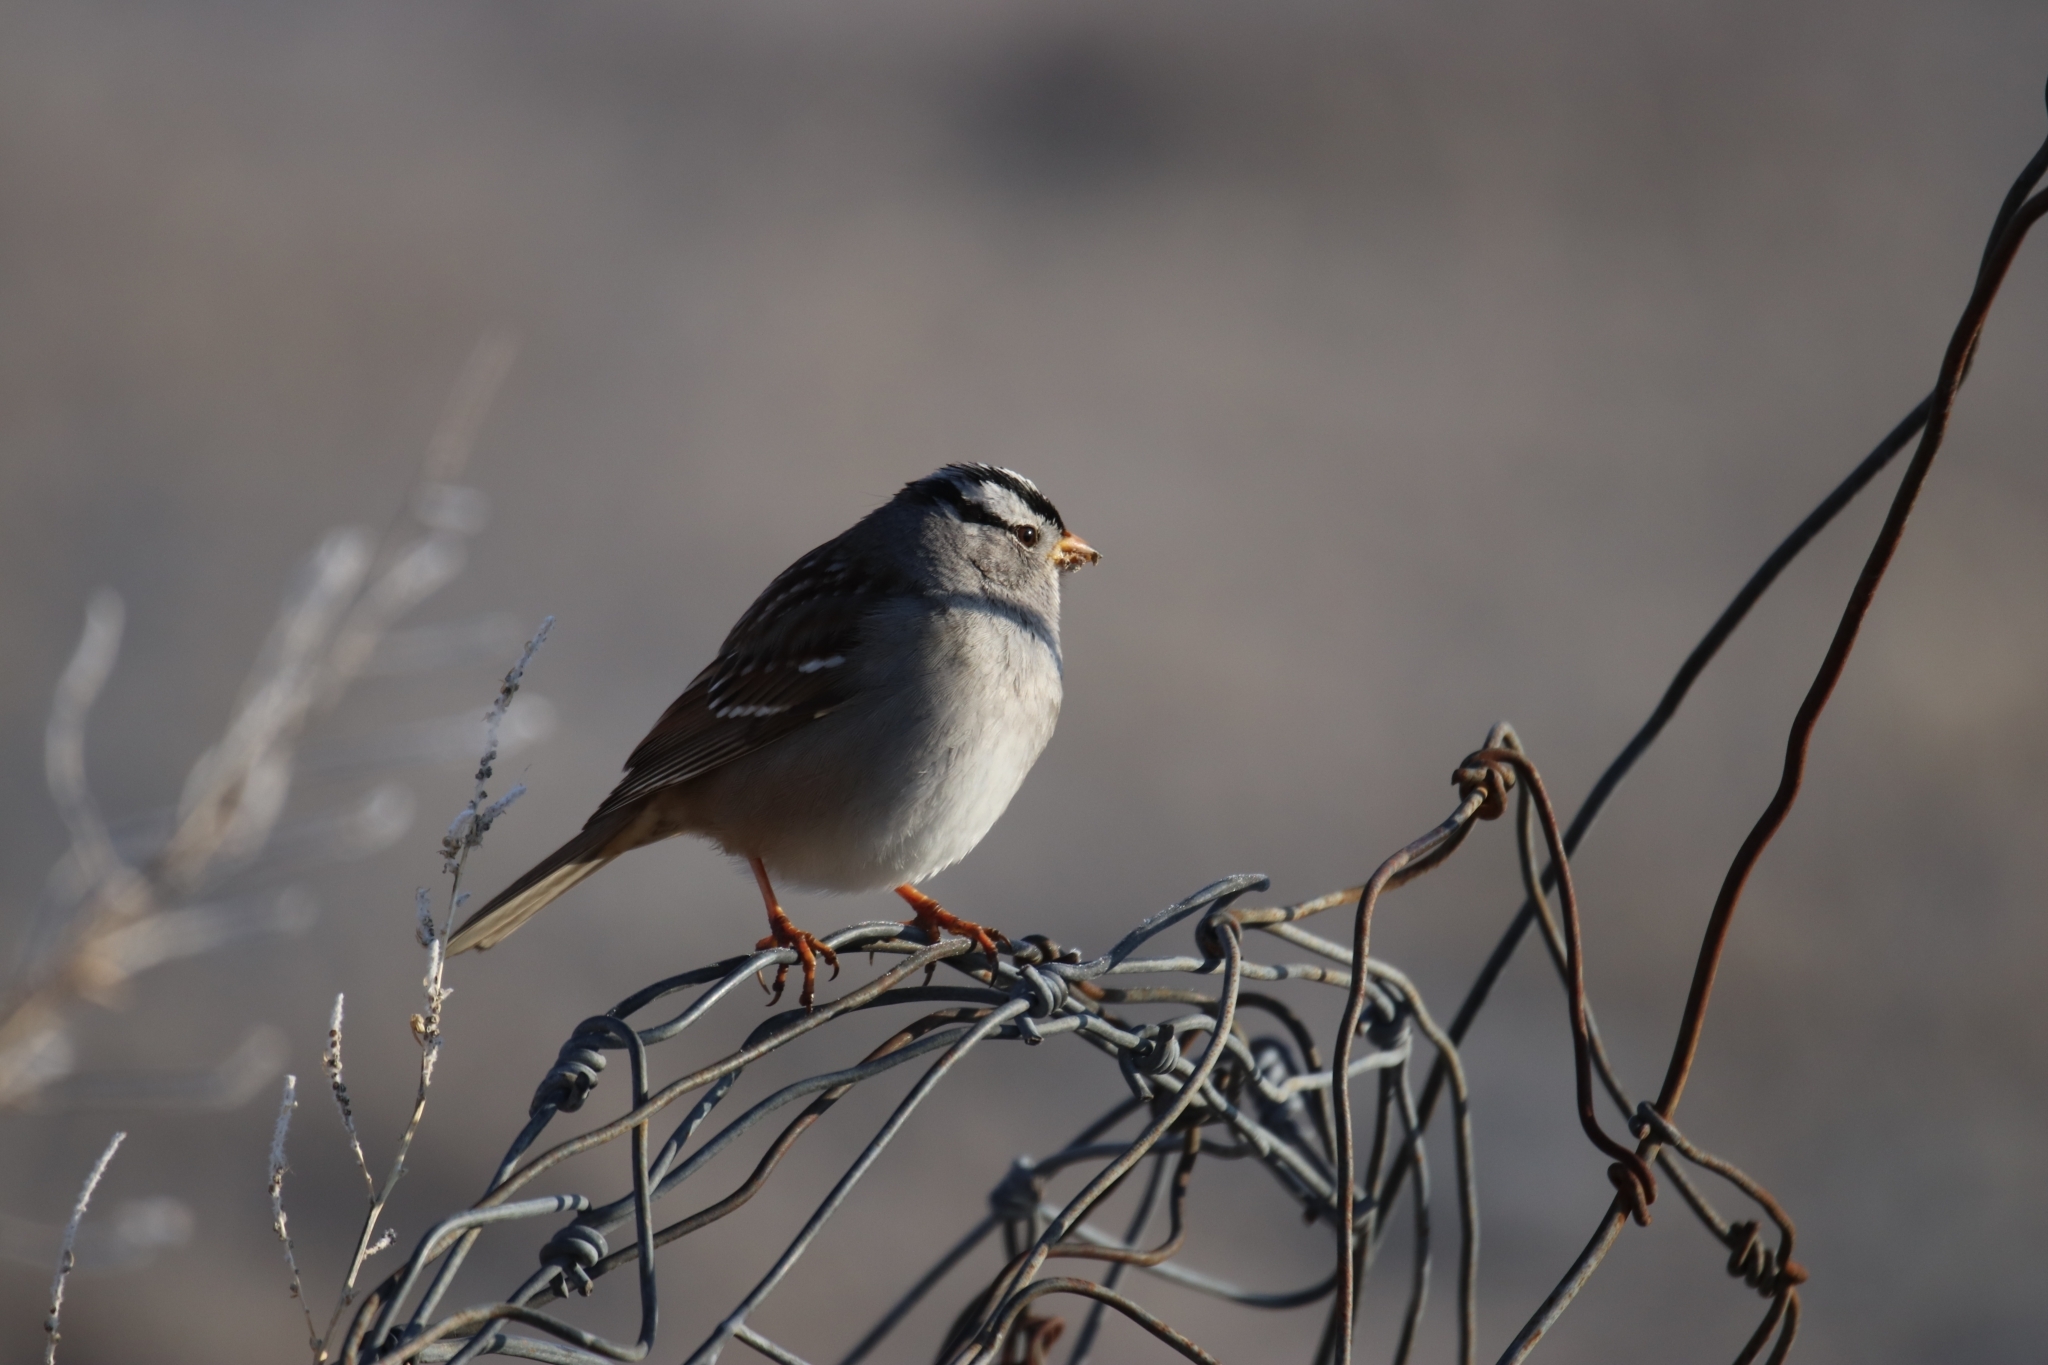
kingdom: Animalia
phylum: Chordata
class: Aves
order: Passeriformes
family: Passerellidae
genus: Zonotrichia
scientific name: Zonotrichia leucophrys
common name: White-crowned sparrow
